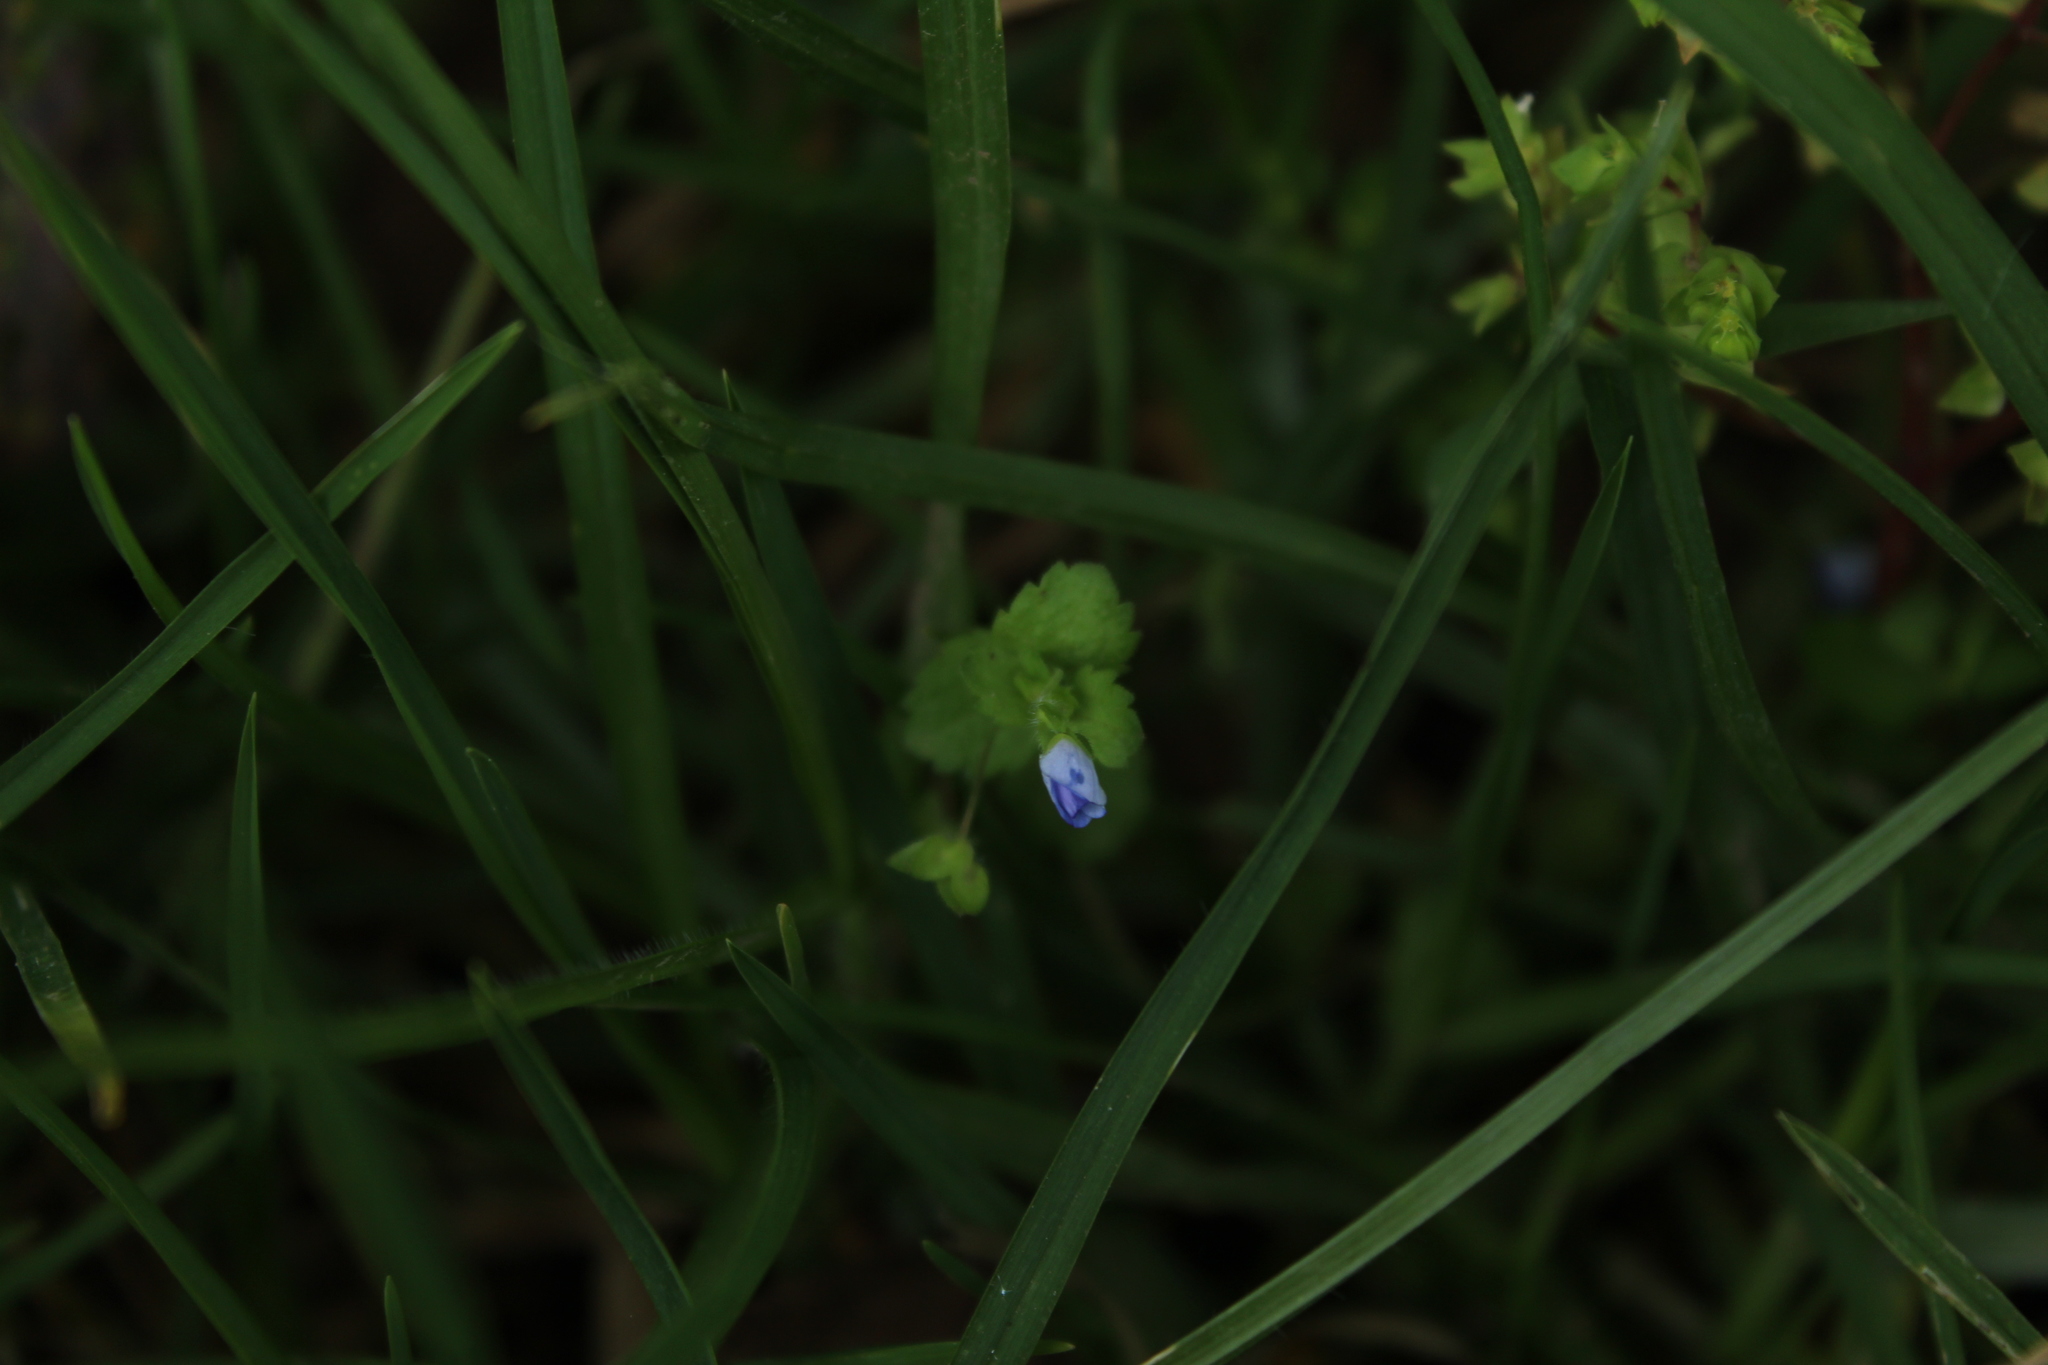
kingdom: Plantae
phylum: Tracheophyta
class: Magnoliopsida
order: Lamiales
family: Plantaginaceae
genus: Veronica
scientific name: Veronica persica
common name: Common field-speedwell
